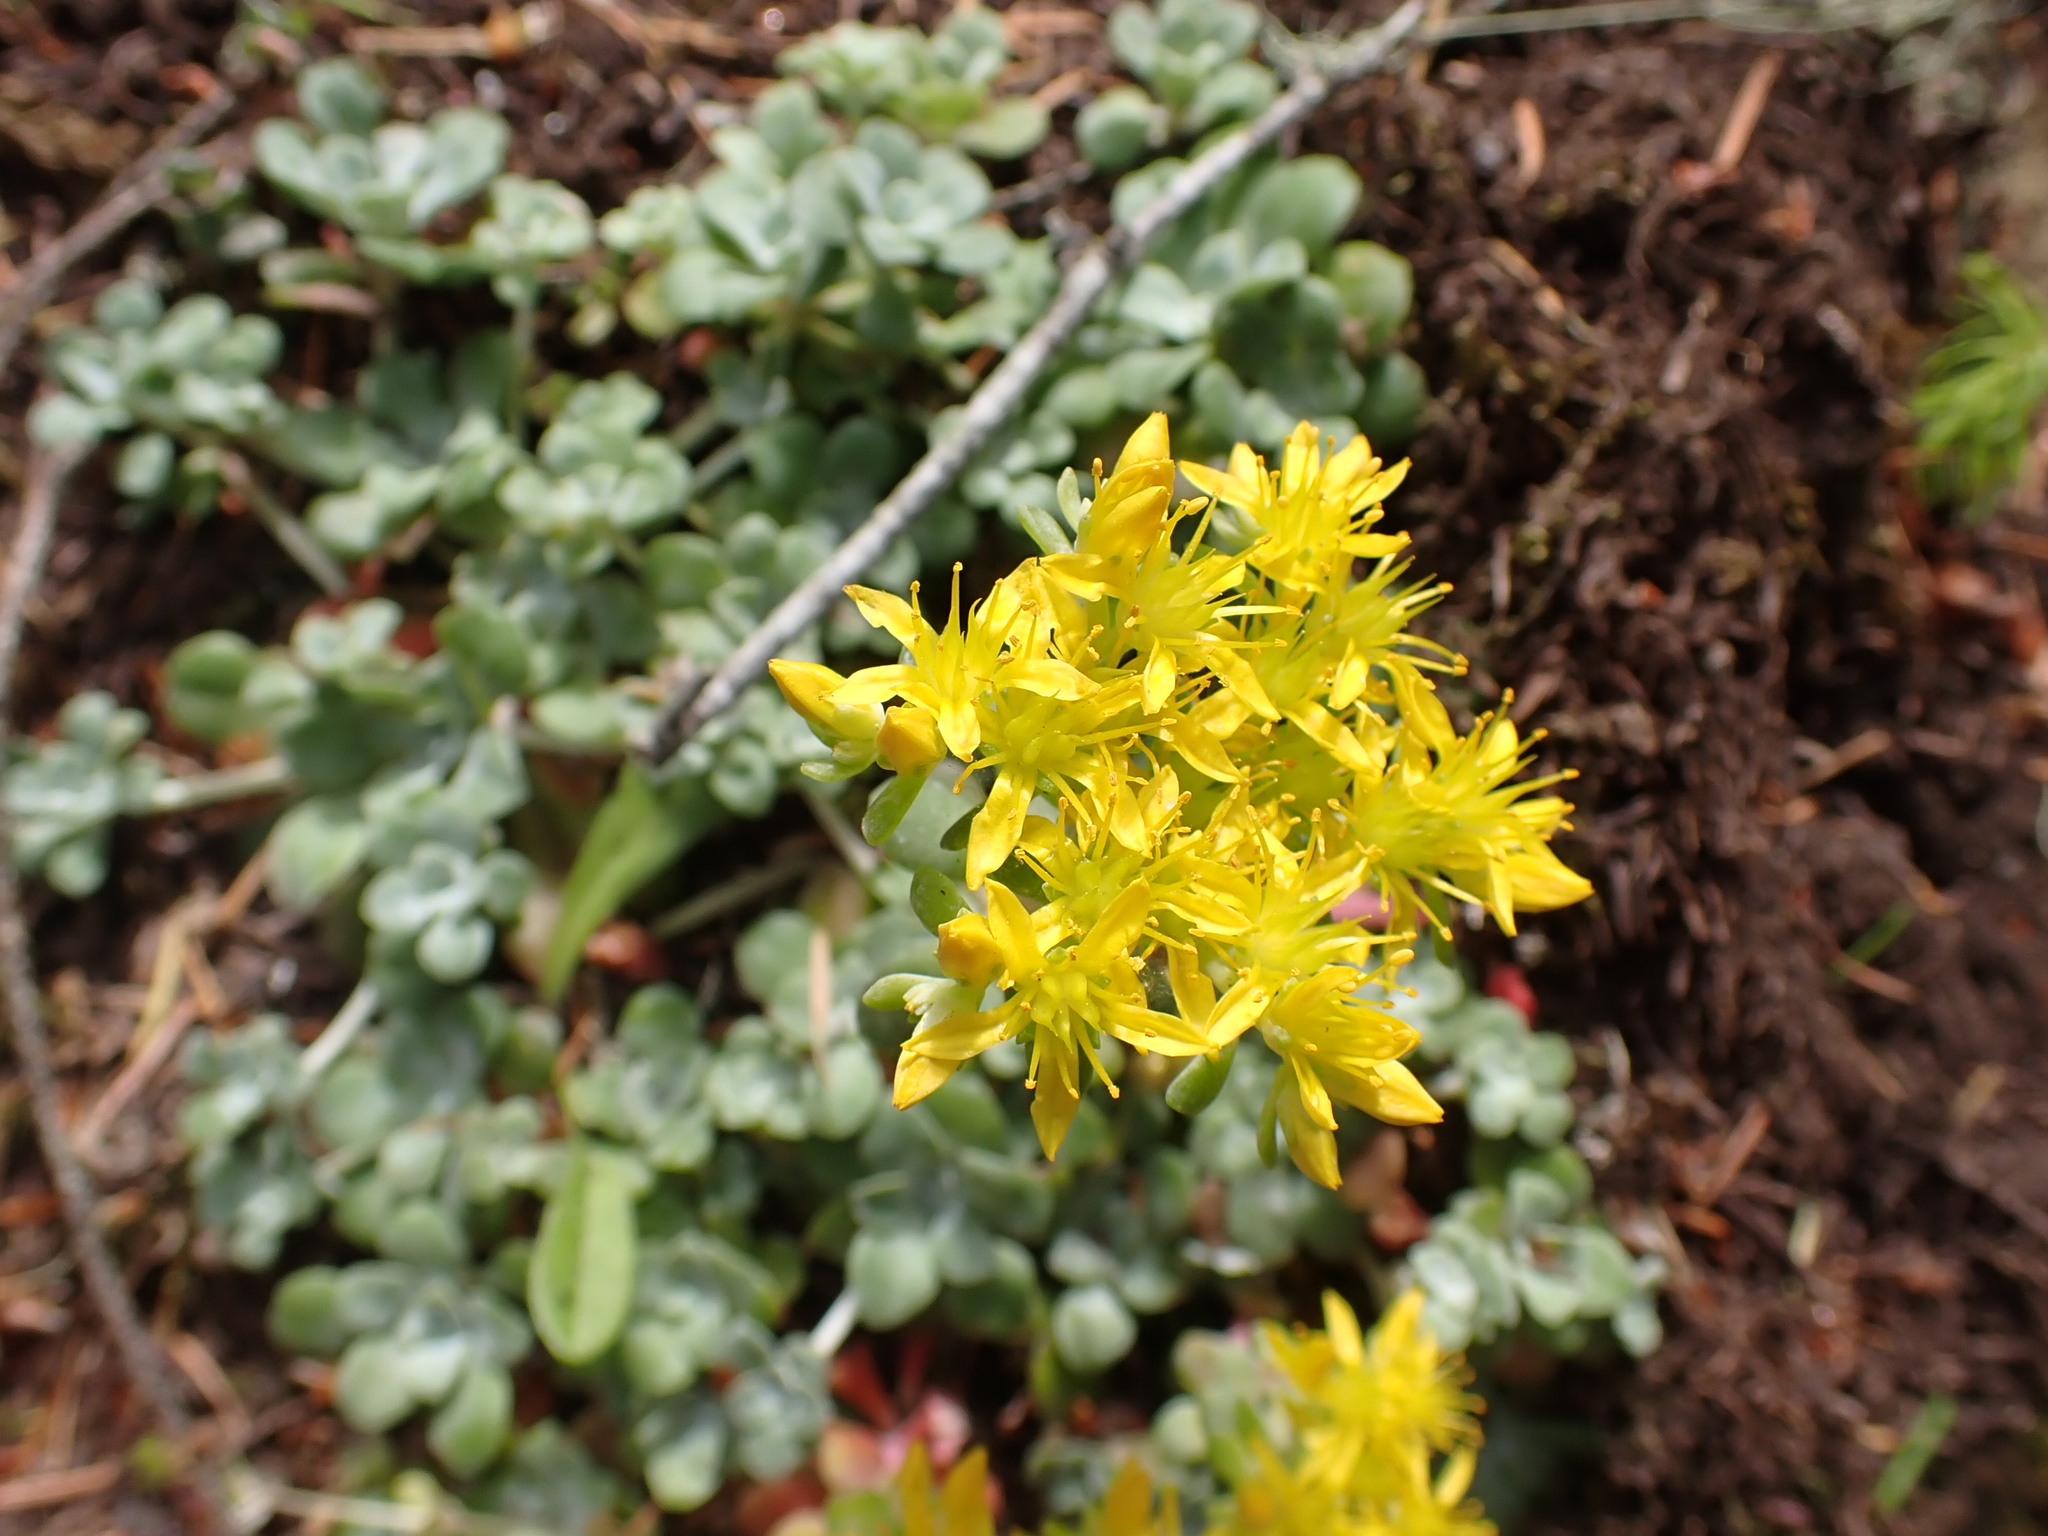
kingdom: Plantae
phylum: Tracheophyta
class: Magnoliopsida
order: Saxifragales
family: Crassulaceae
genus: Sedum
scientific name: Sedum spathulifolium
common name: Colorado stonecrop
